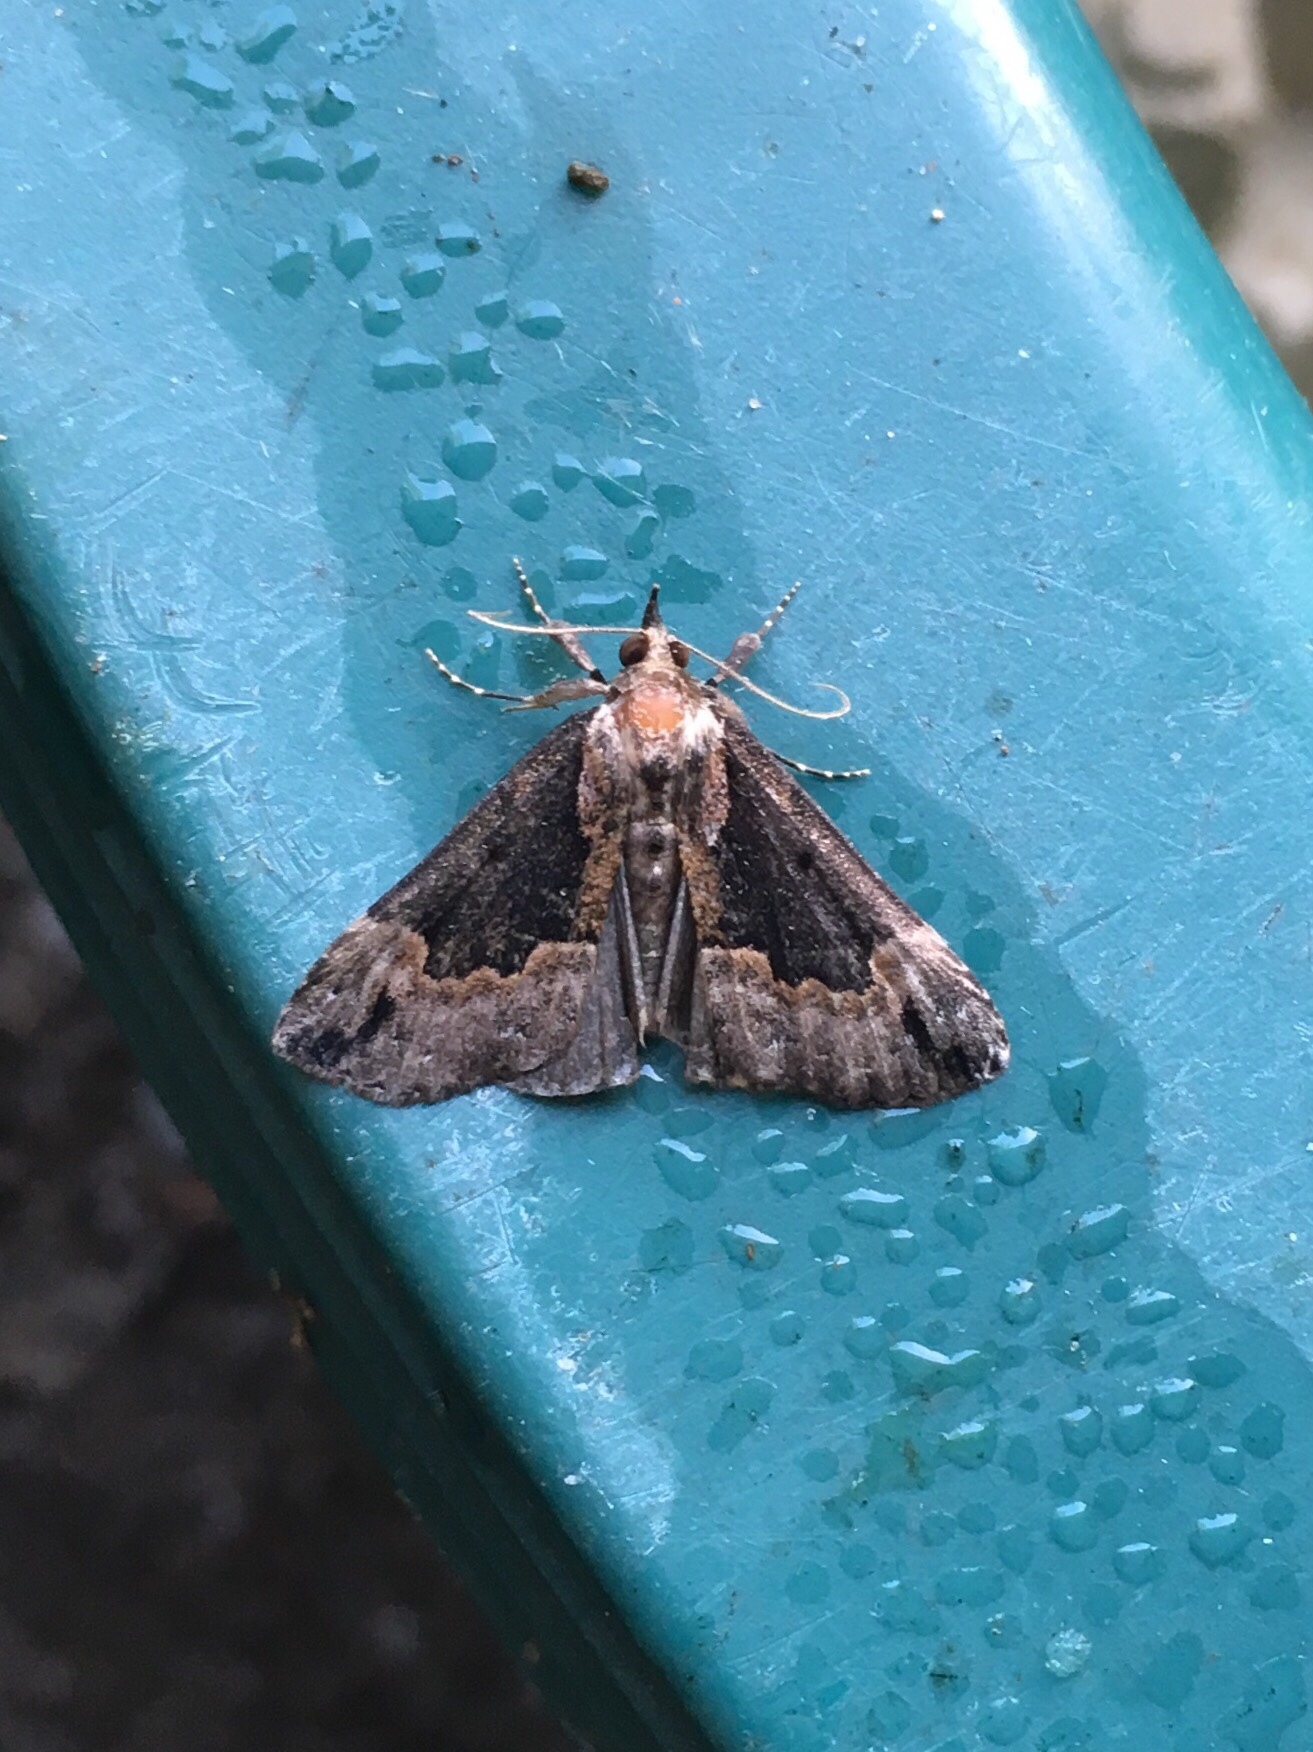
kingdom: Animalia
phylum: Arthropoda
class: Insecta
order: Lepidoptera
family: Erebidae
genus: Hypena
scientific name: Hypena baltimoralis
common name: Baltimore snout
